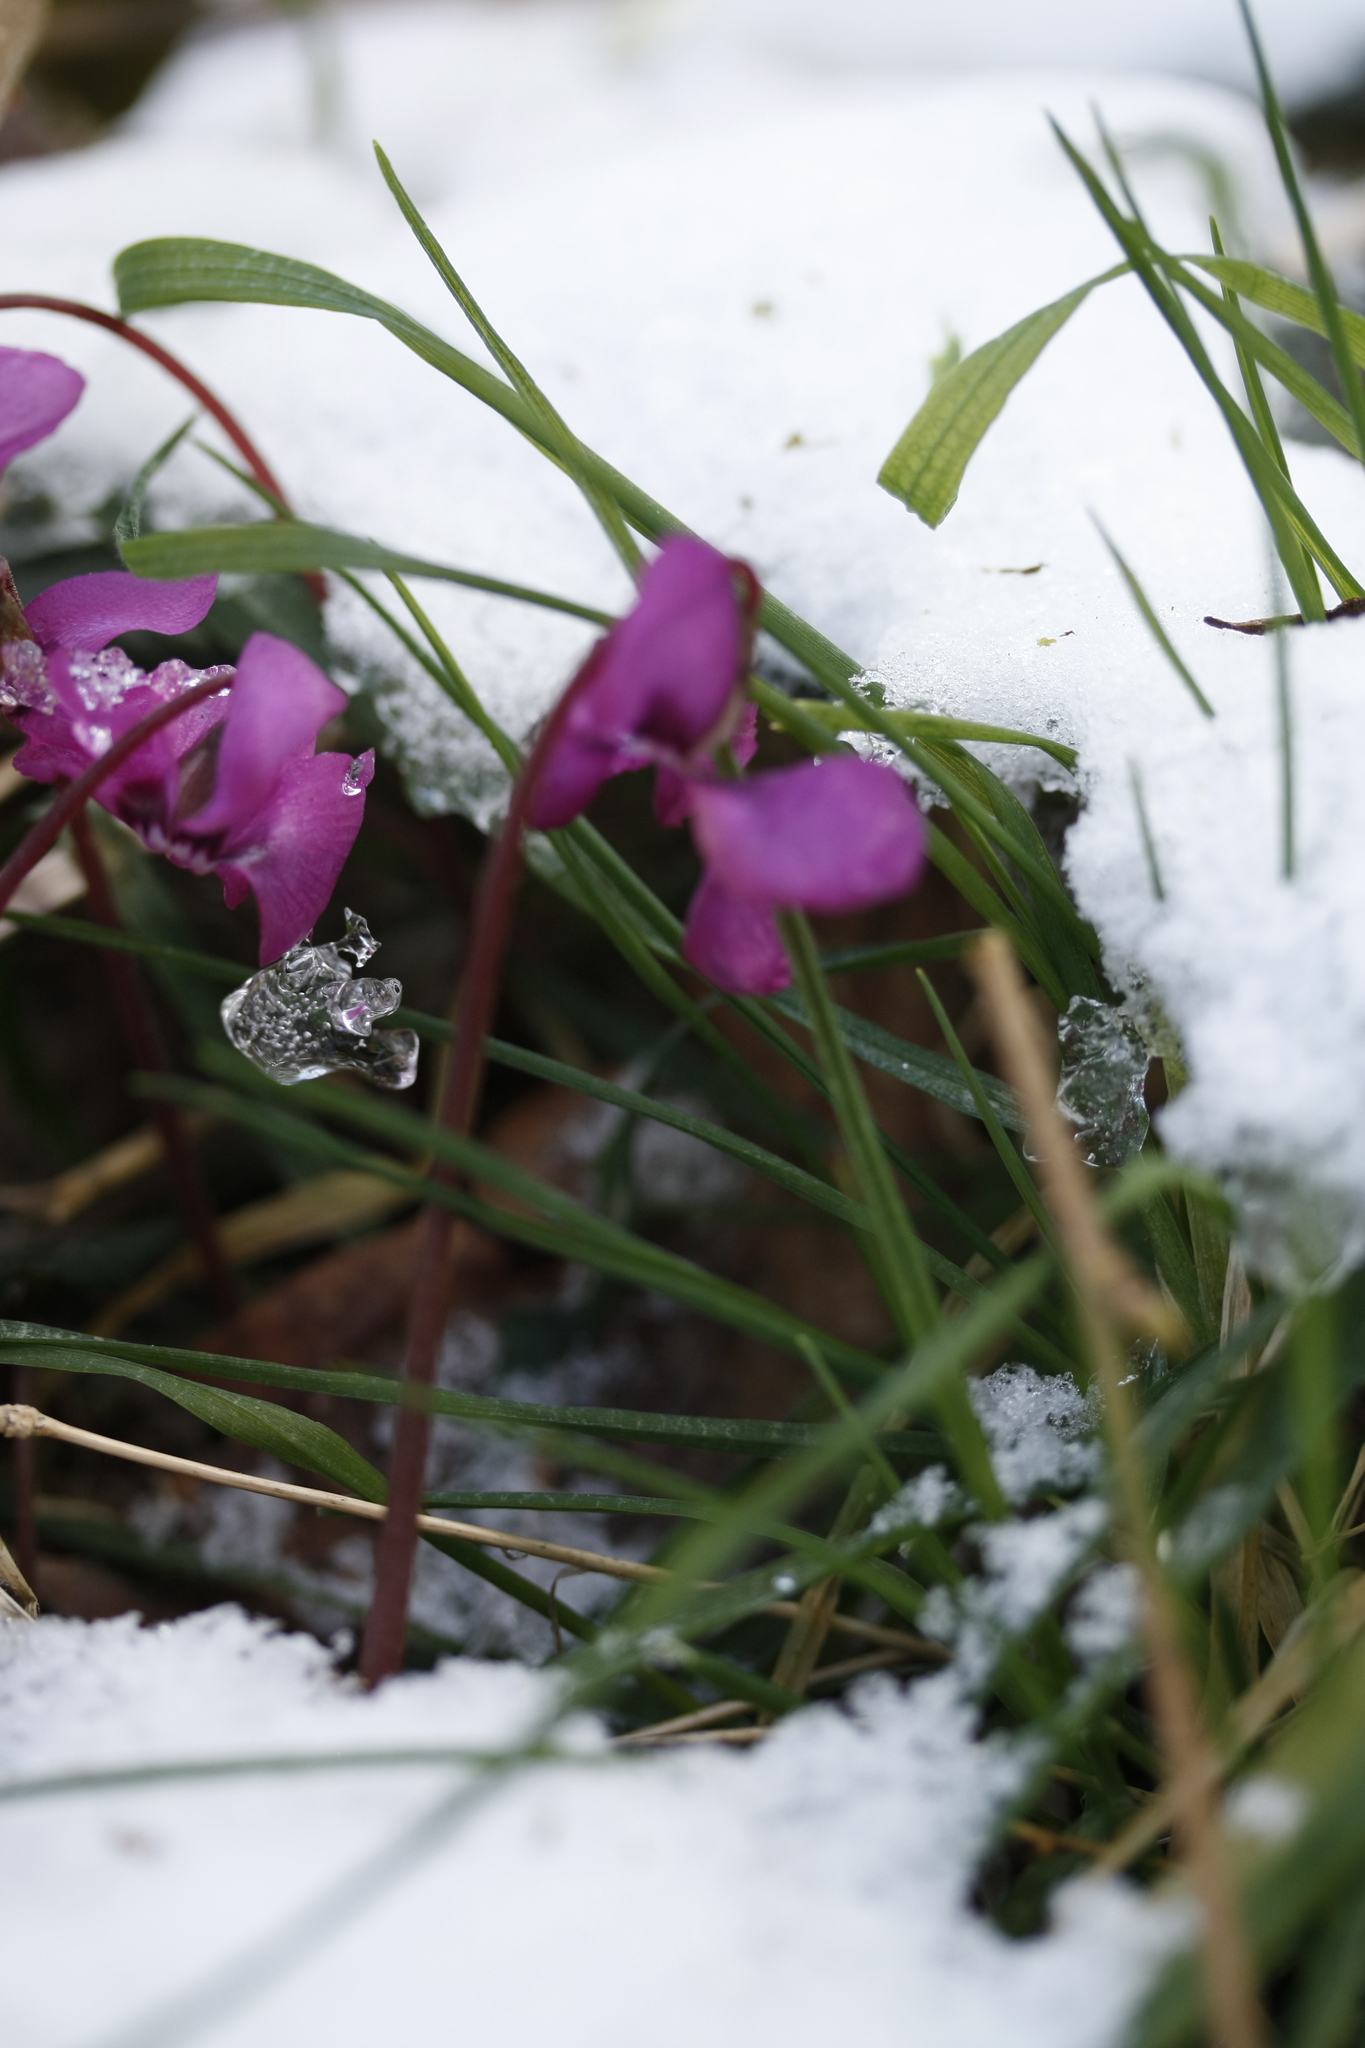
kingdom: Plantae
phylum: Tracheophyta
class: Magnoliopsida
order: Ericales
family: Primulaceae
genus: Cyclamen
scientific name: Cyclamen coum
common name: Eastern sowbread
